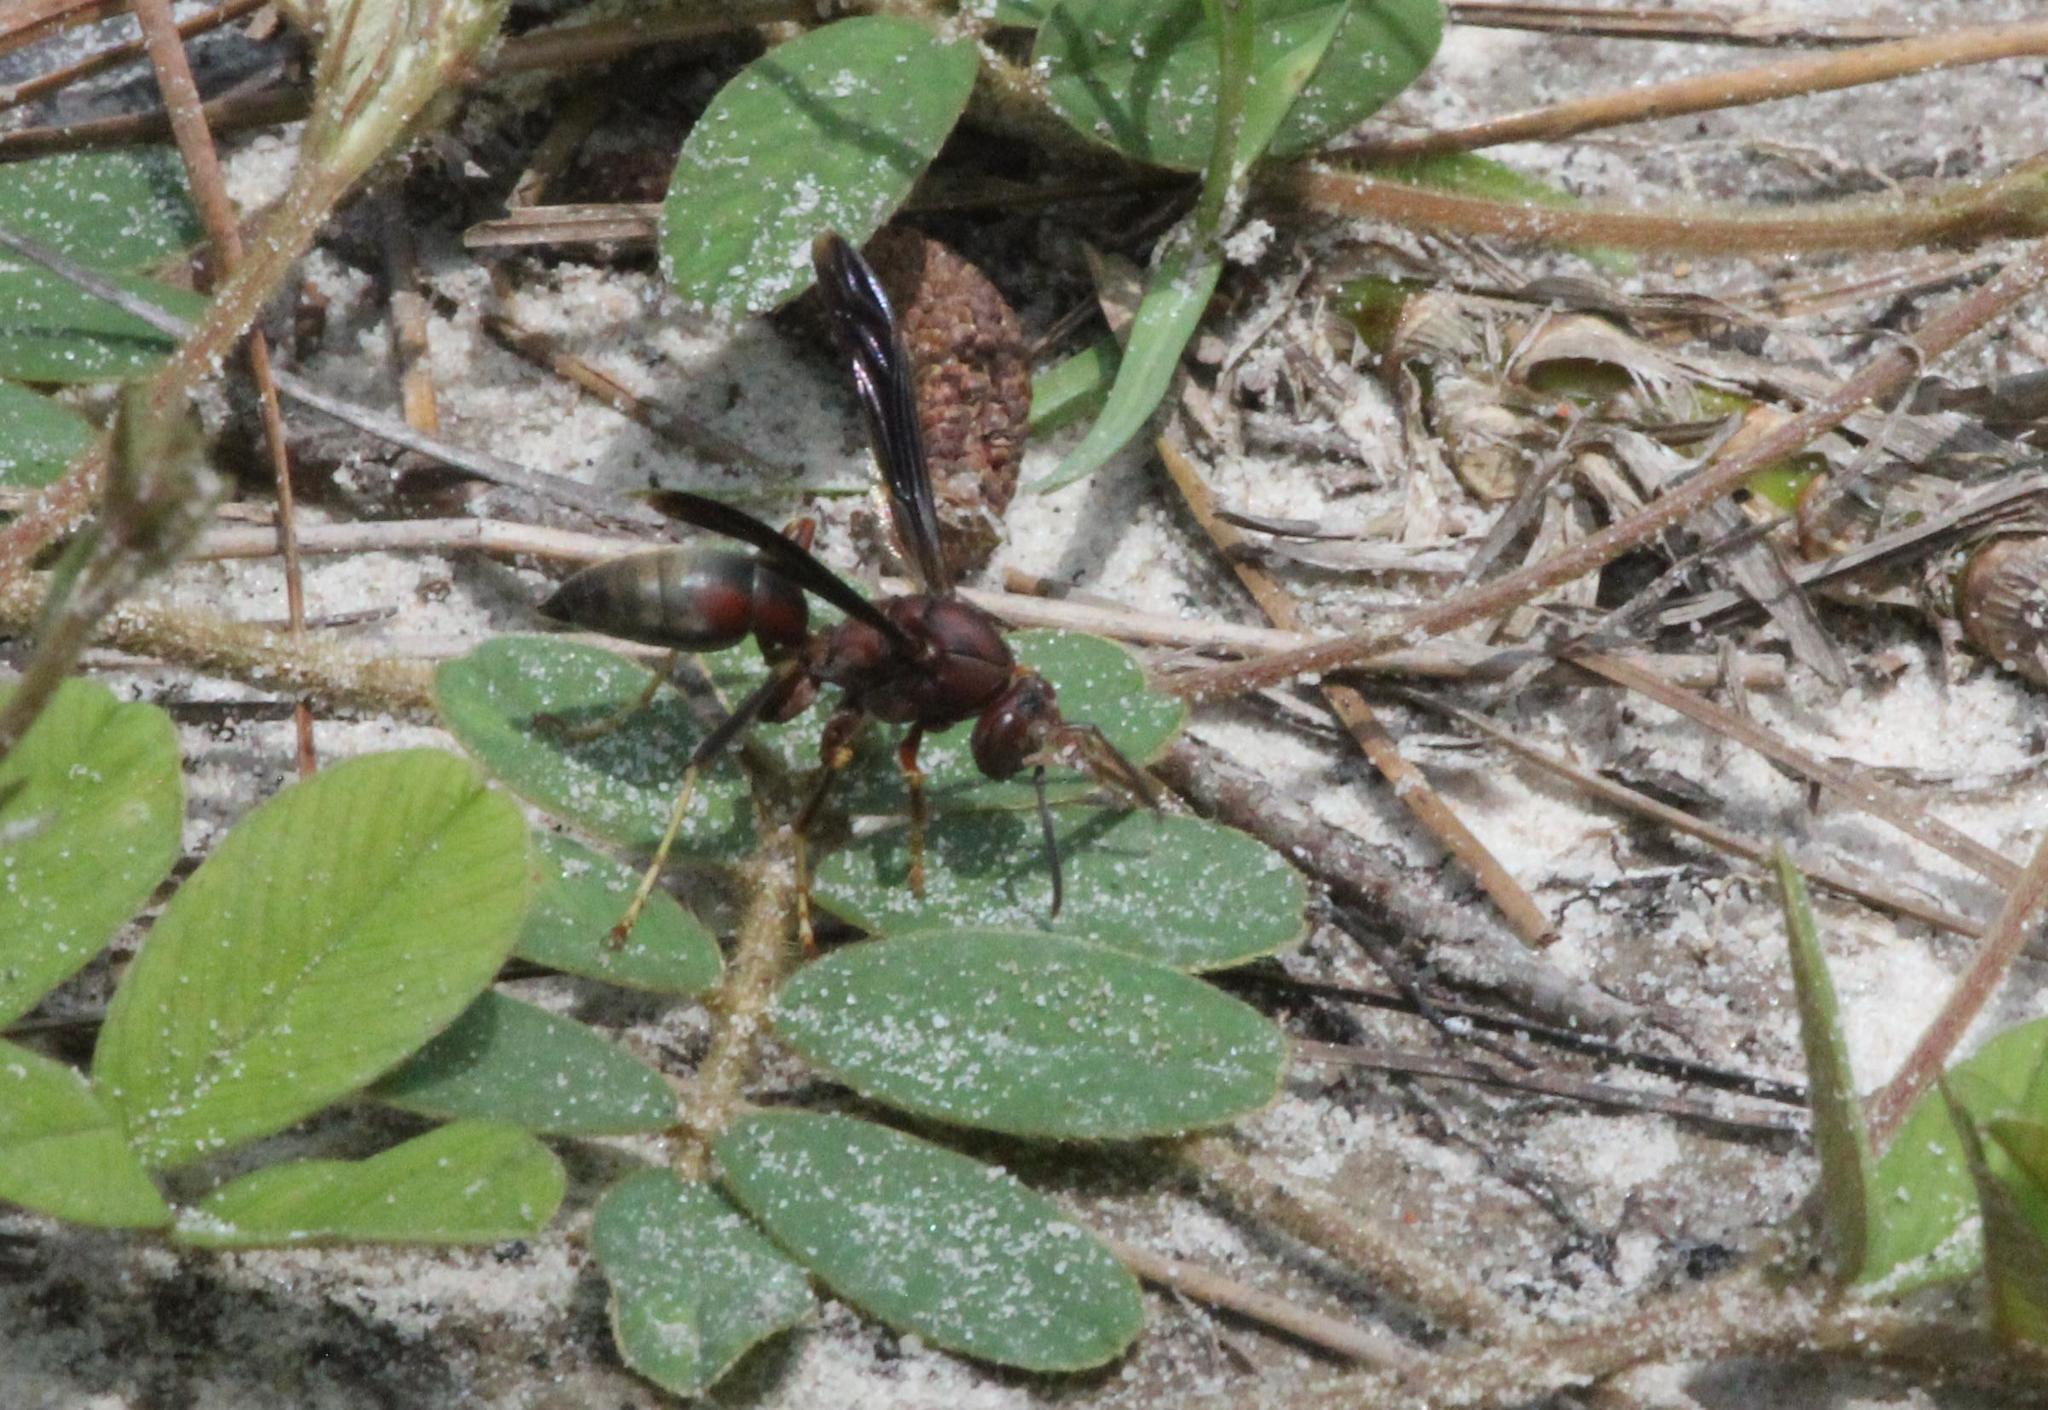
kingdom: Animalia
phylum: Arthropoda
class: Insecta
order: Hymenoptera
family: Eumenidae
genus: Polistes
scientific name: Polistes metricus
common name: Metric paper wasp
